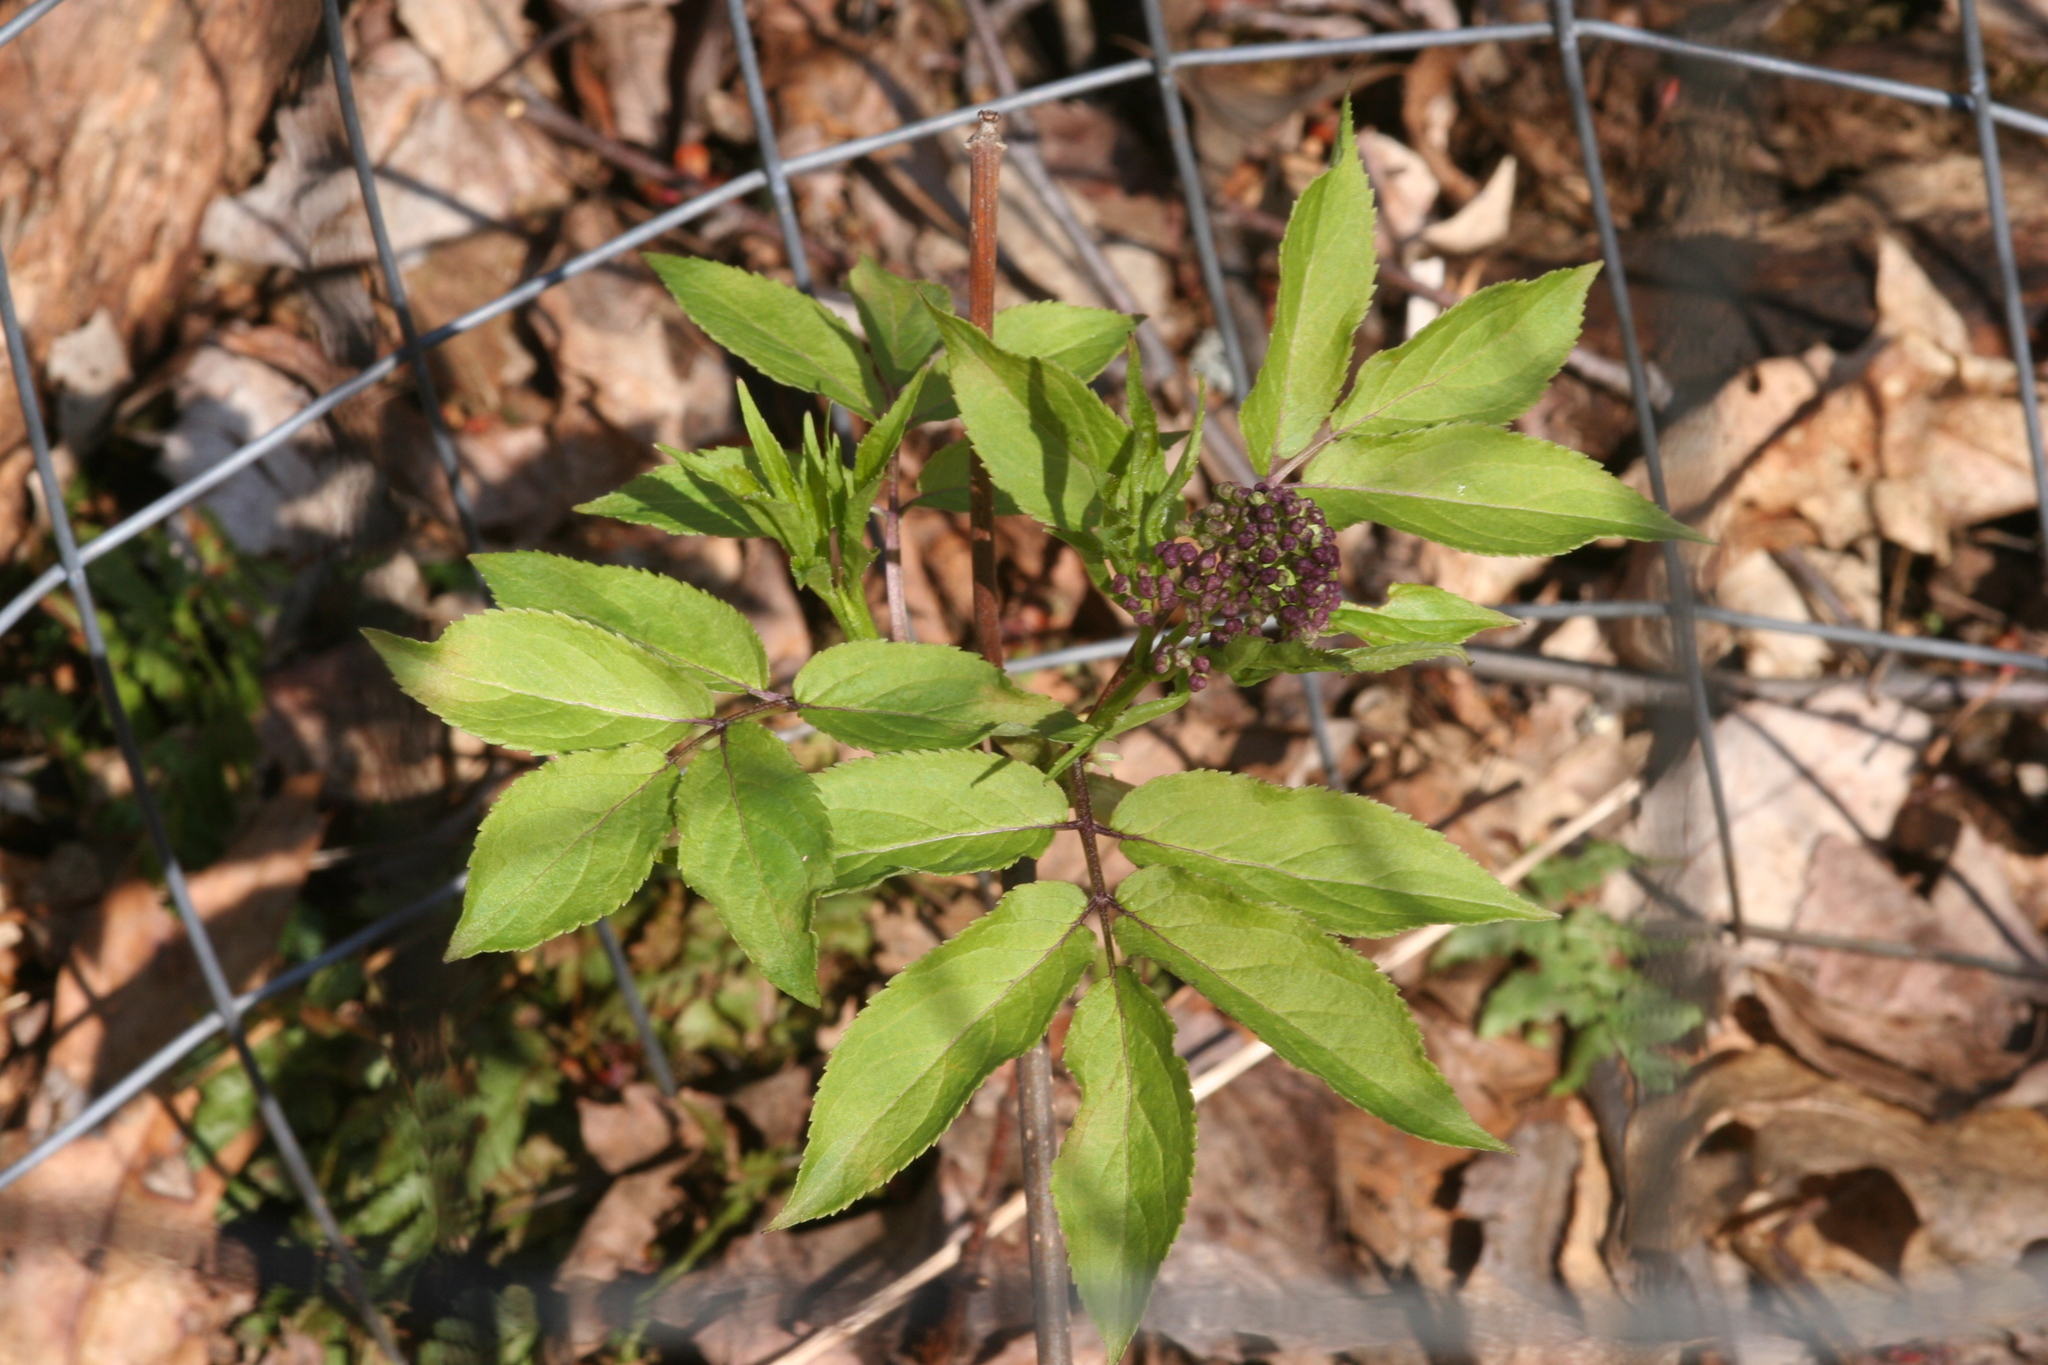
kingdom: Plantae
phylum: Tracheophyta
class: Magnoliopsida
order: Dipsacales
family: Viburnaceae
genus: Sambucus
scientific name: Sambucus racemosa
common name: Red-berried elder
